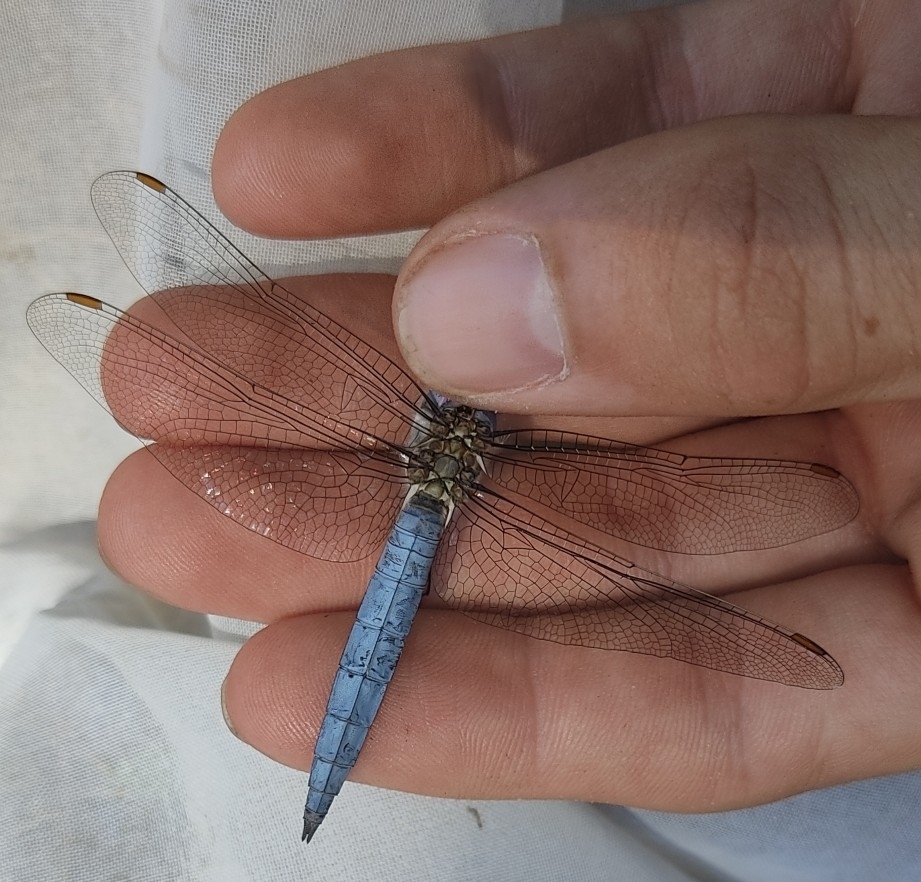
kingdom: Animalia
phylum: Arthropoda
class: Insecta
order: Odonata
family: Libellulidae
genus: Orthetrum
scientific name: Orthetrum brunneum
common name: Southern skimmer
